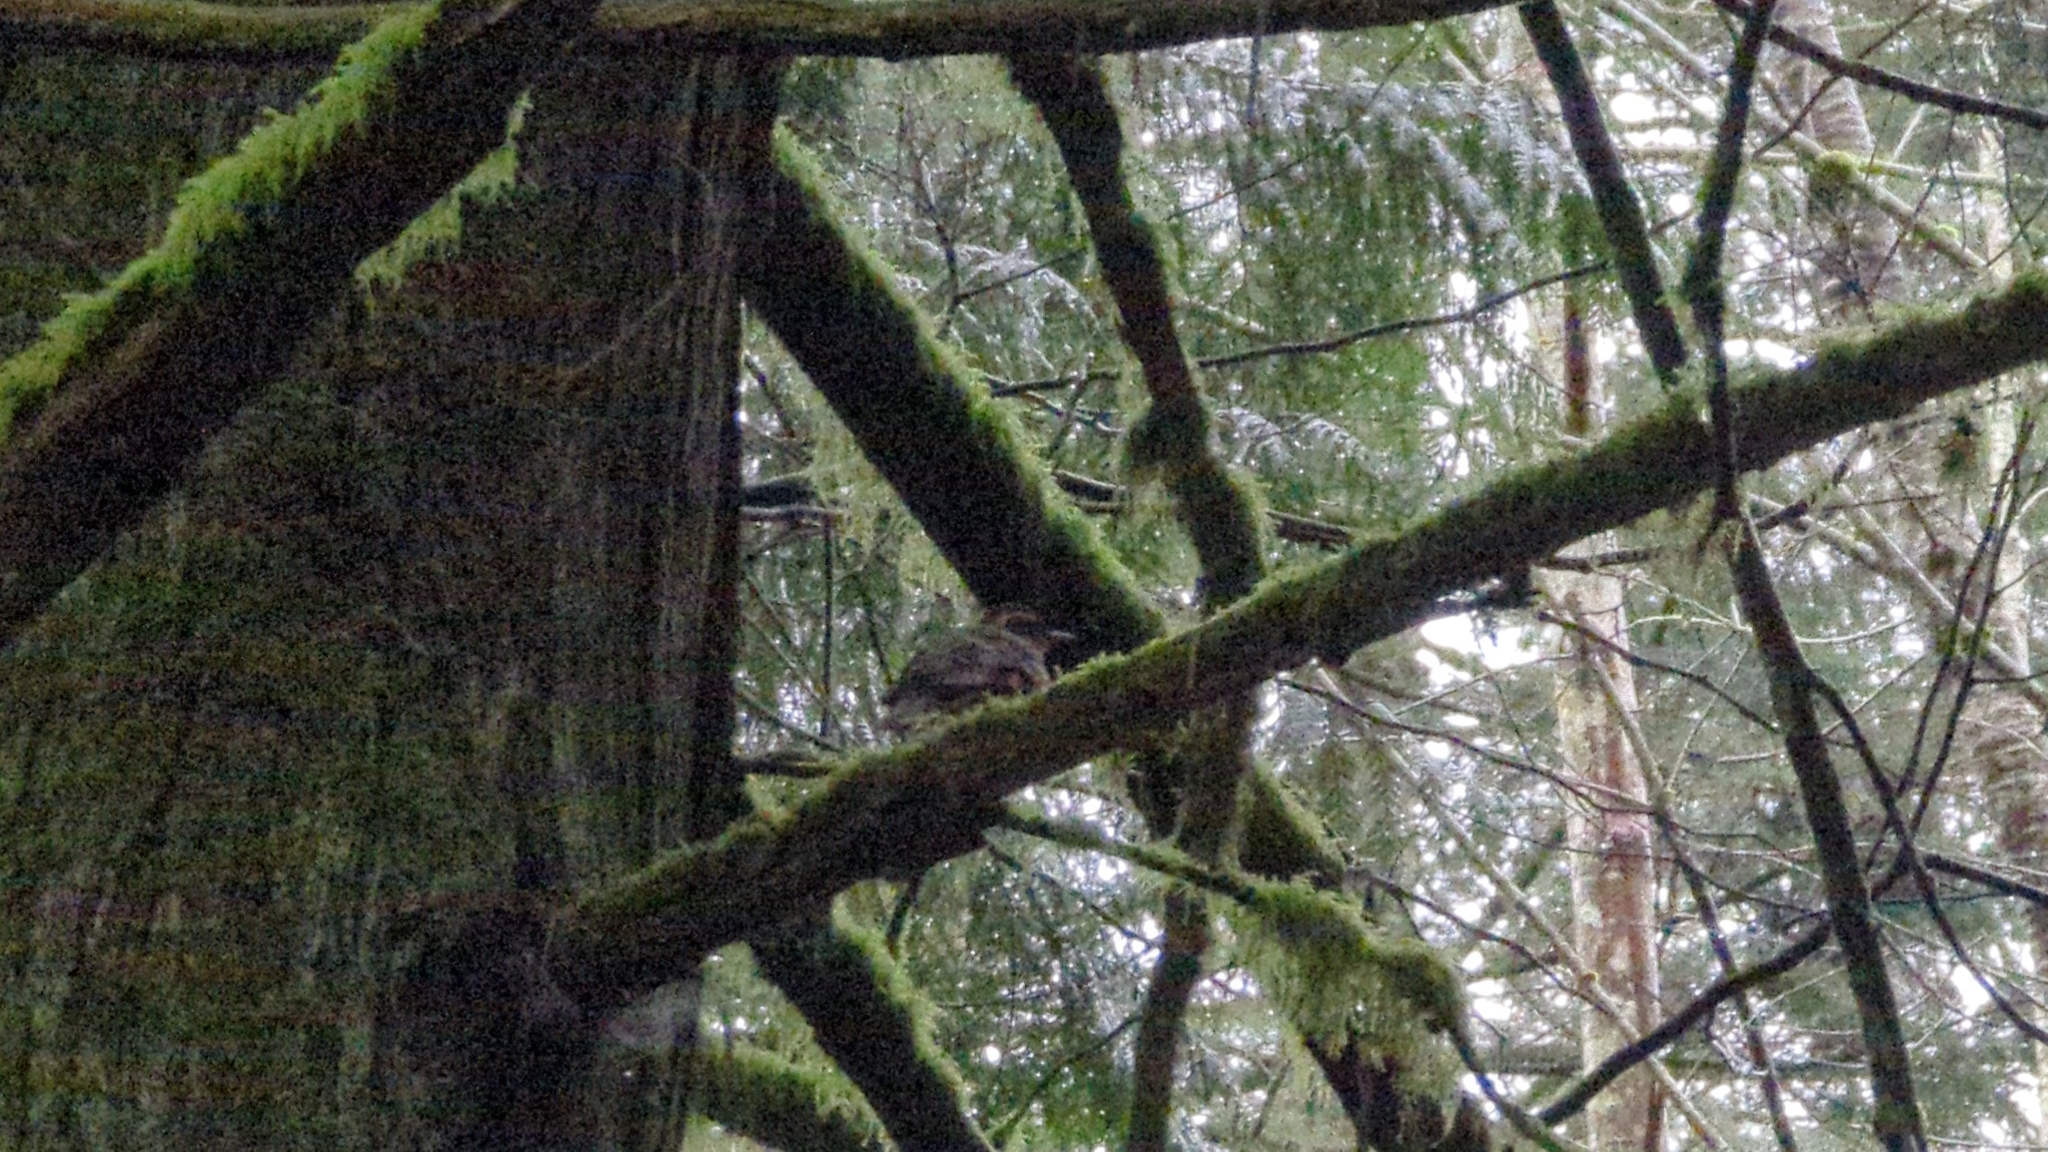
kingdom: Animalia
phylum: Chordata
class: Aves
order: Passeriformes
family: Turdidae
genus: Ixoreus
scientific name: Ixoreus naevius
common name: Varied thrush
